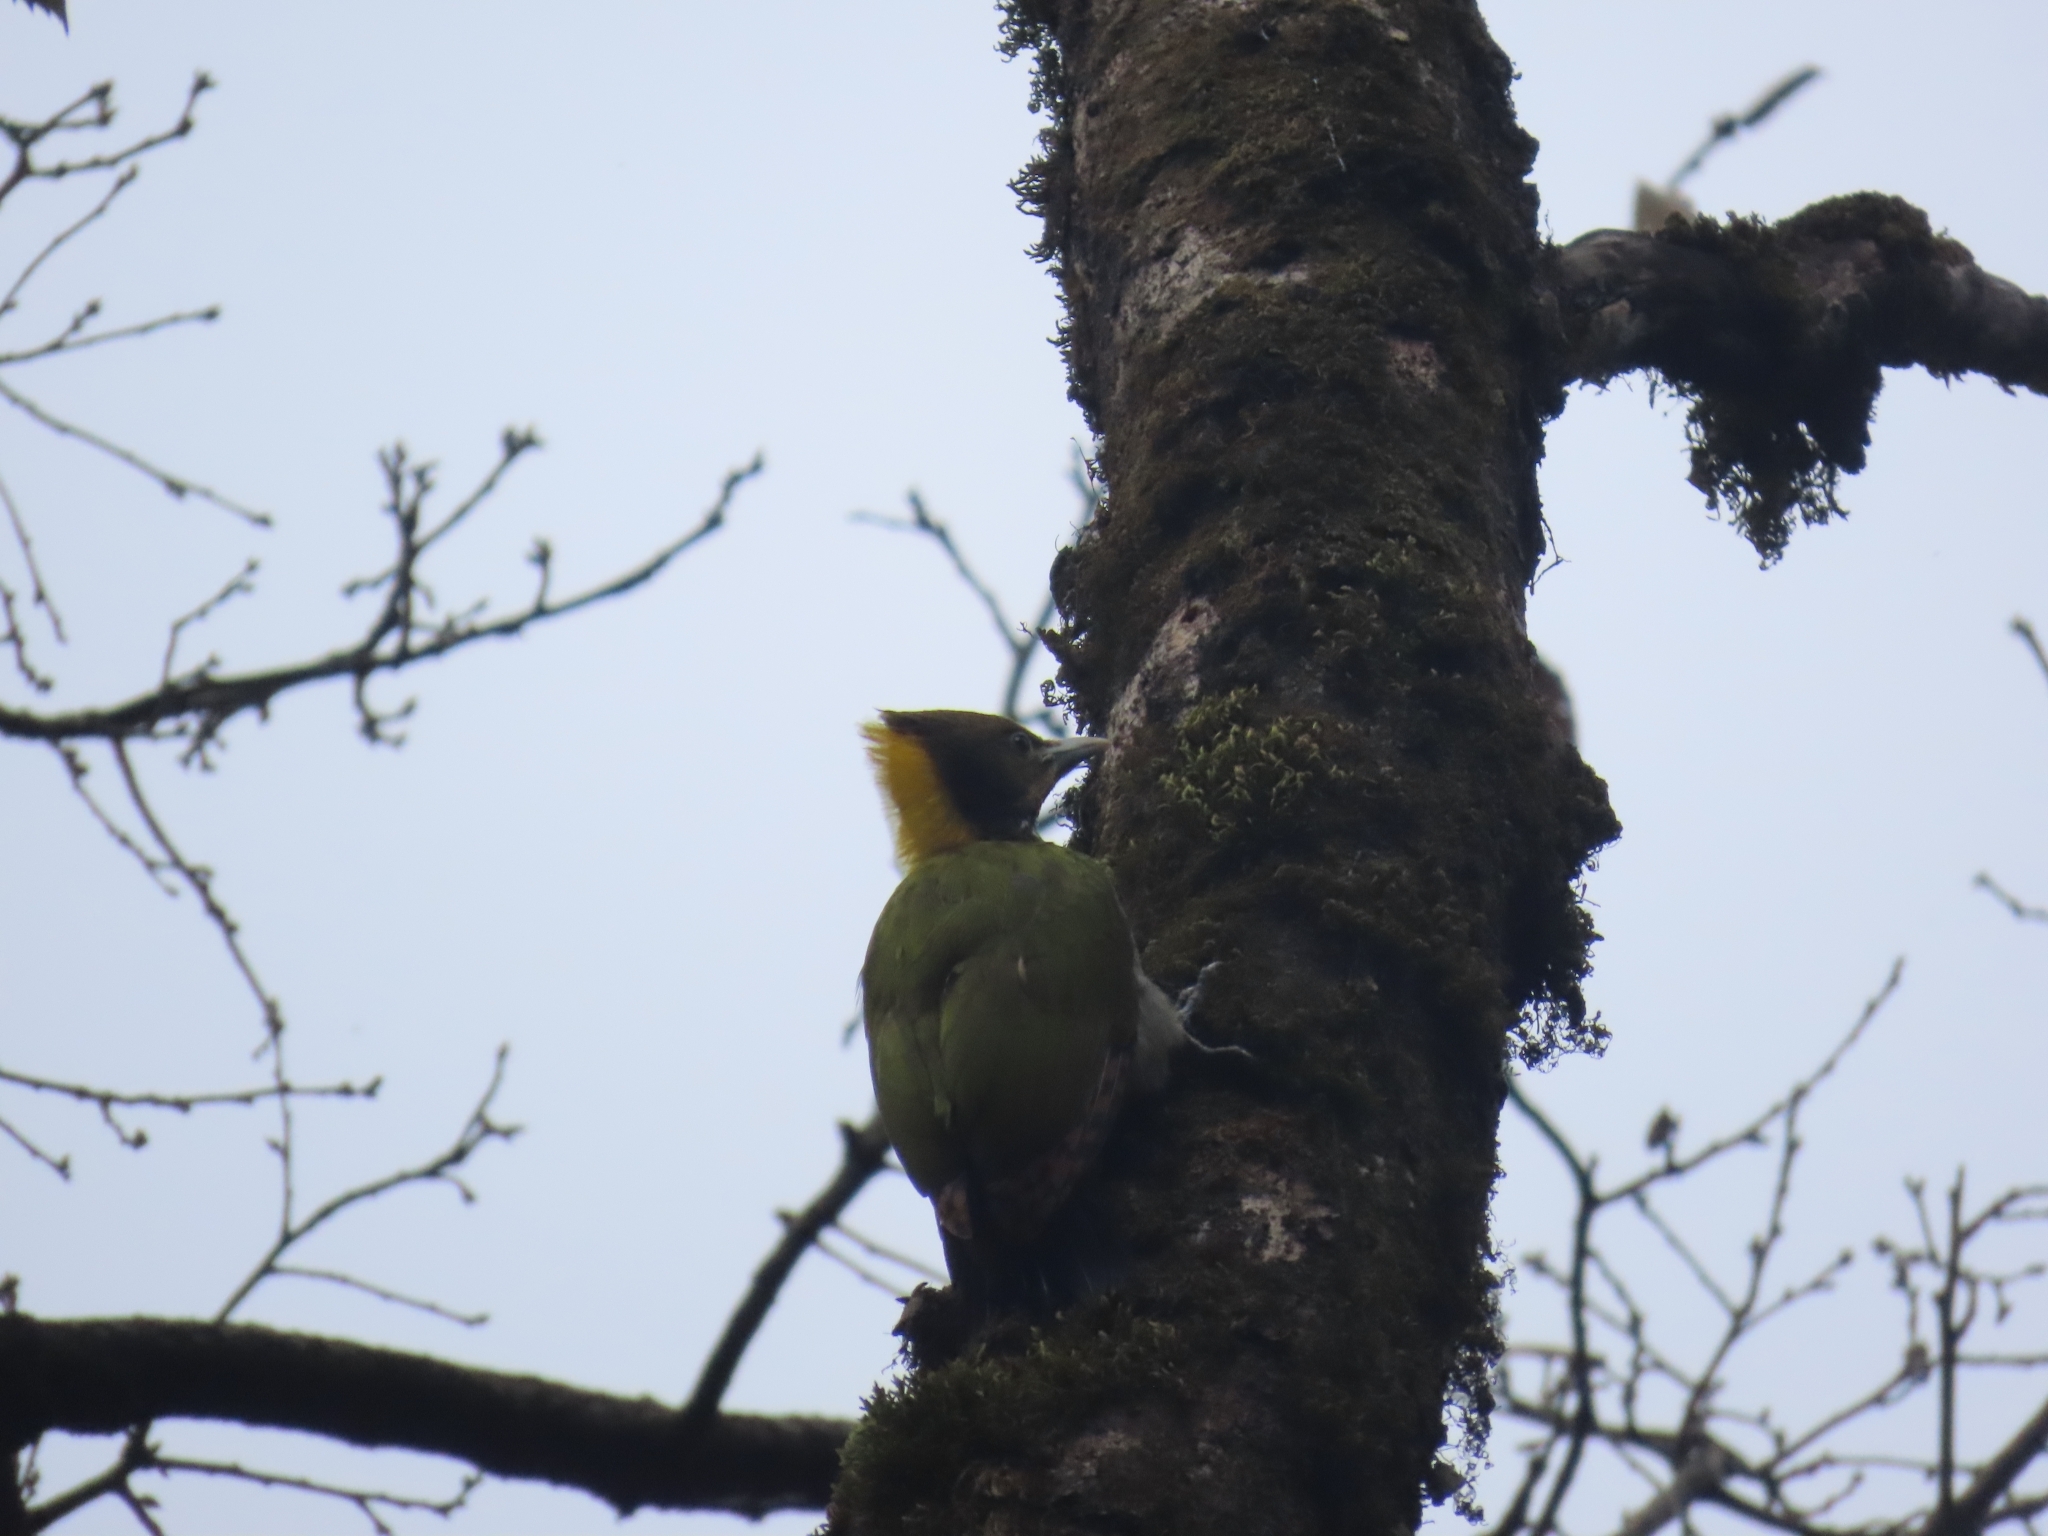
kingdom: Animalia
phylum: Chordata
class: Aves
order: Piciformes
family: Picidae
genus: Picus
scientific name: Picus chlorolophus
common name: Lesser yellownape
